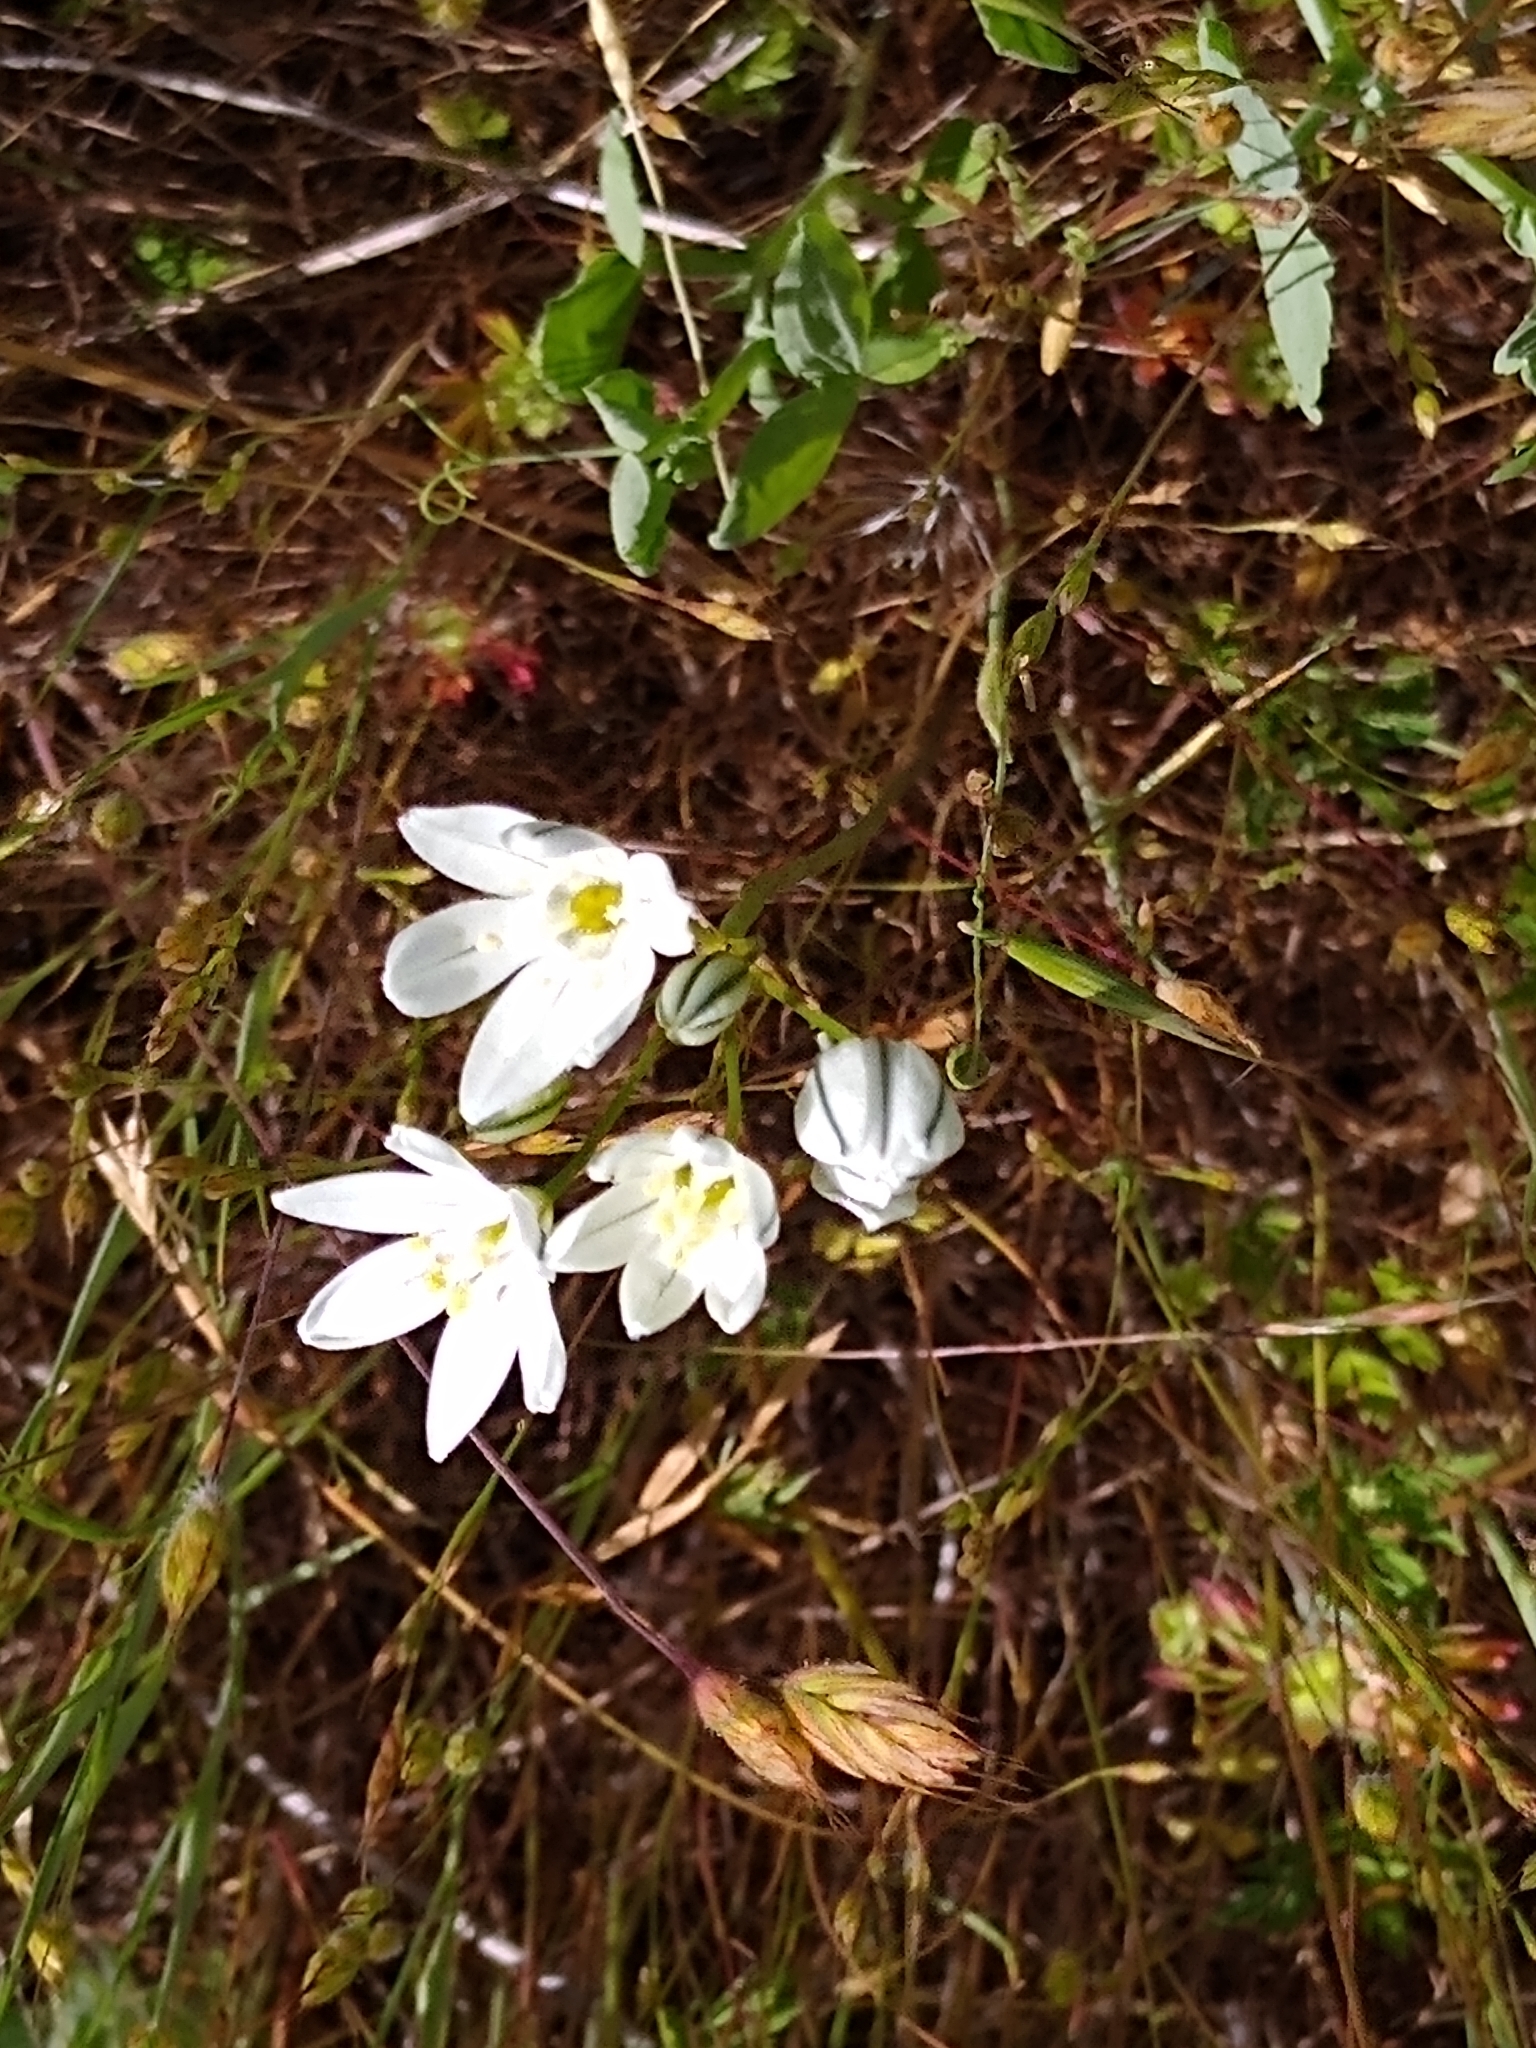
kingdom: Plantae
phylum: Tracheophyta
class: Liliopsida
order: Asparagales
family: Asparagaceae
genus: Triteleia
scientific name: Triteleia hyacinthina
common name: White brodiaea
